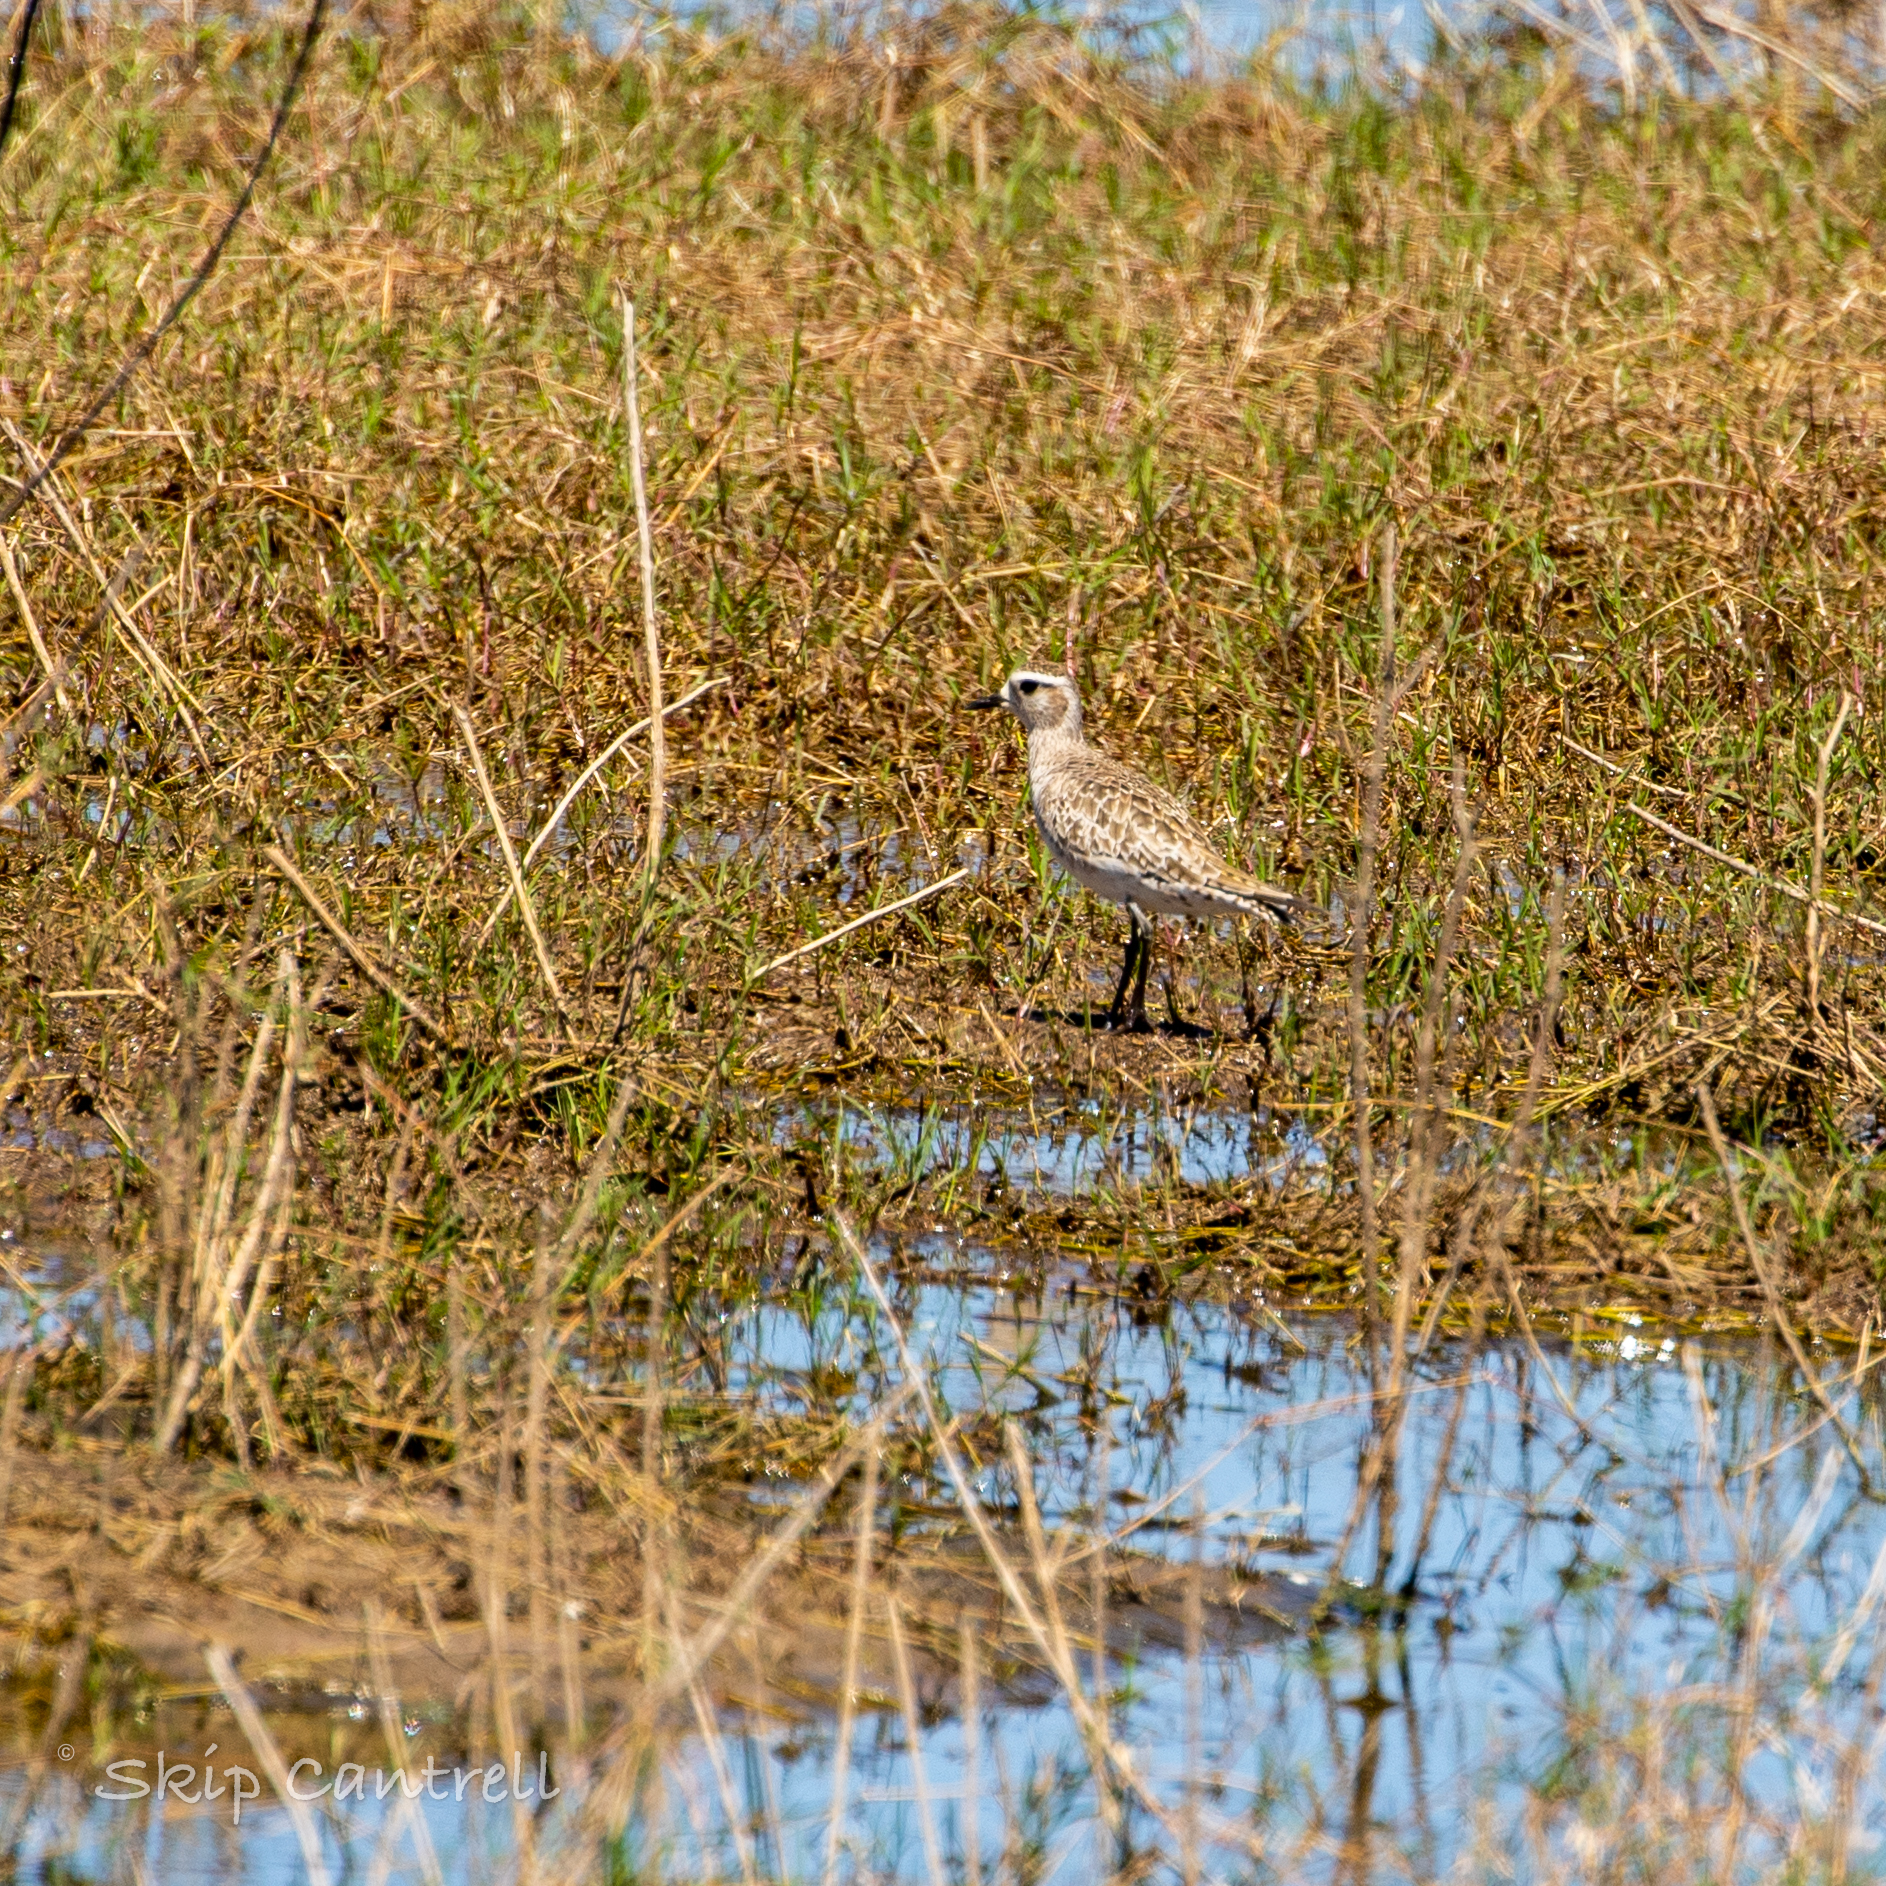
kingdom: Animalia
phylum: Chordata
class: Aves
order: Charadriiformes
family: Charadriidae
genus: Pluvialis
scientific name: Pluvialis dominica
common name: American golden plover
